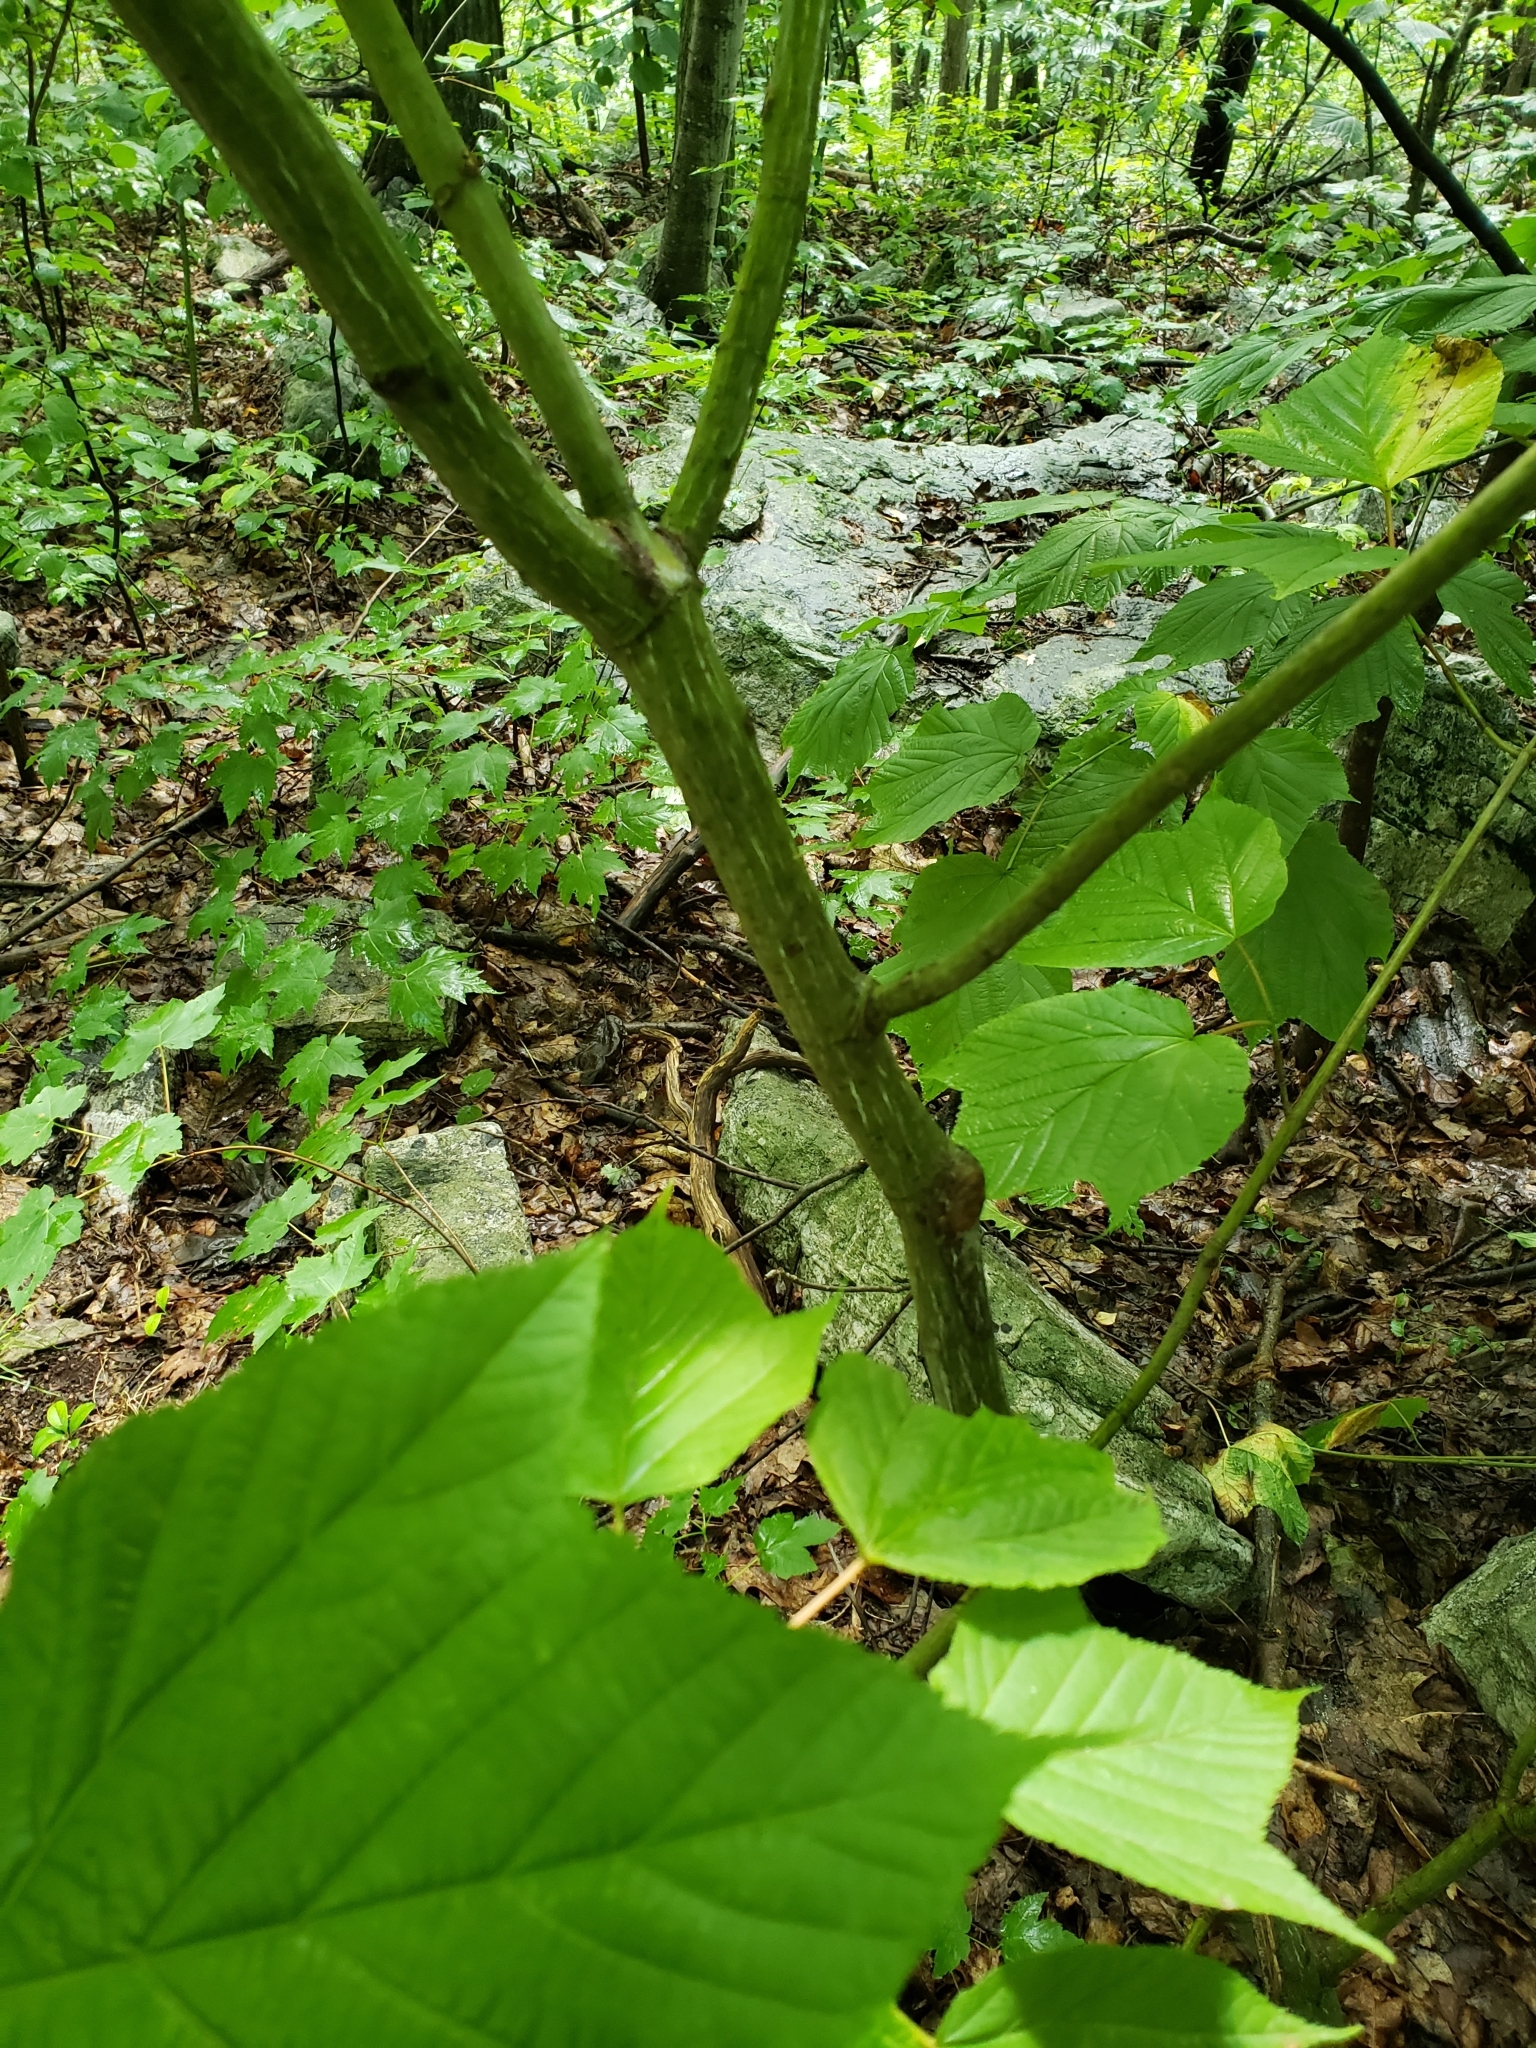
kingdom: Plantae
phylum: Tracheophyta
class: Magnoliopsida
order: Sapindales
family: Sapindaceae
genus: Acer
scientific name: Acer pensylvanicum
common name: Moosewood
